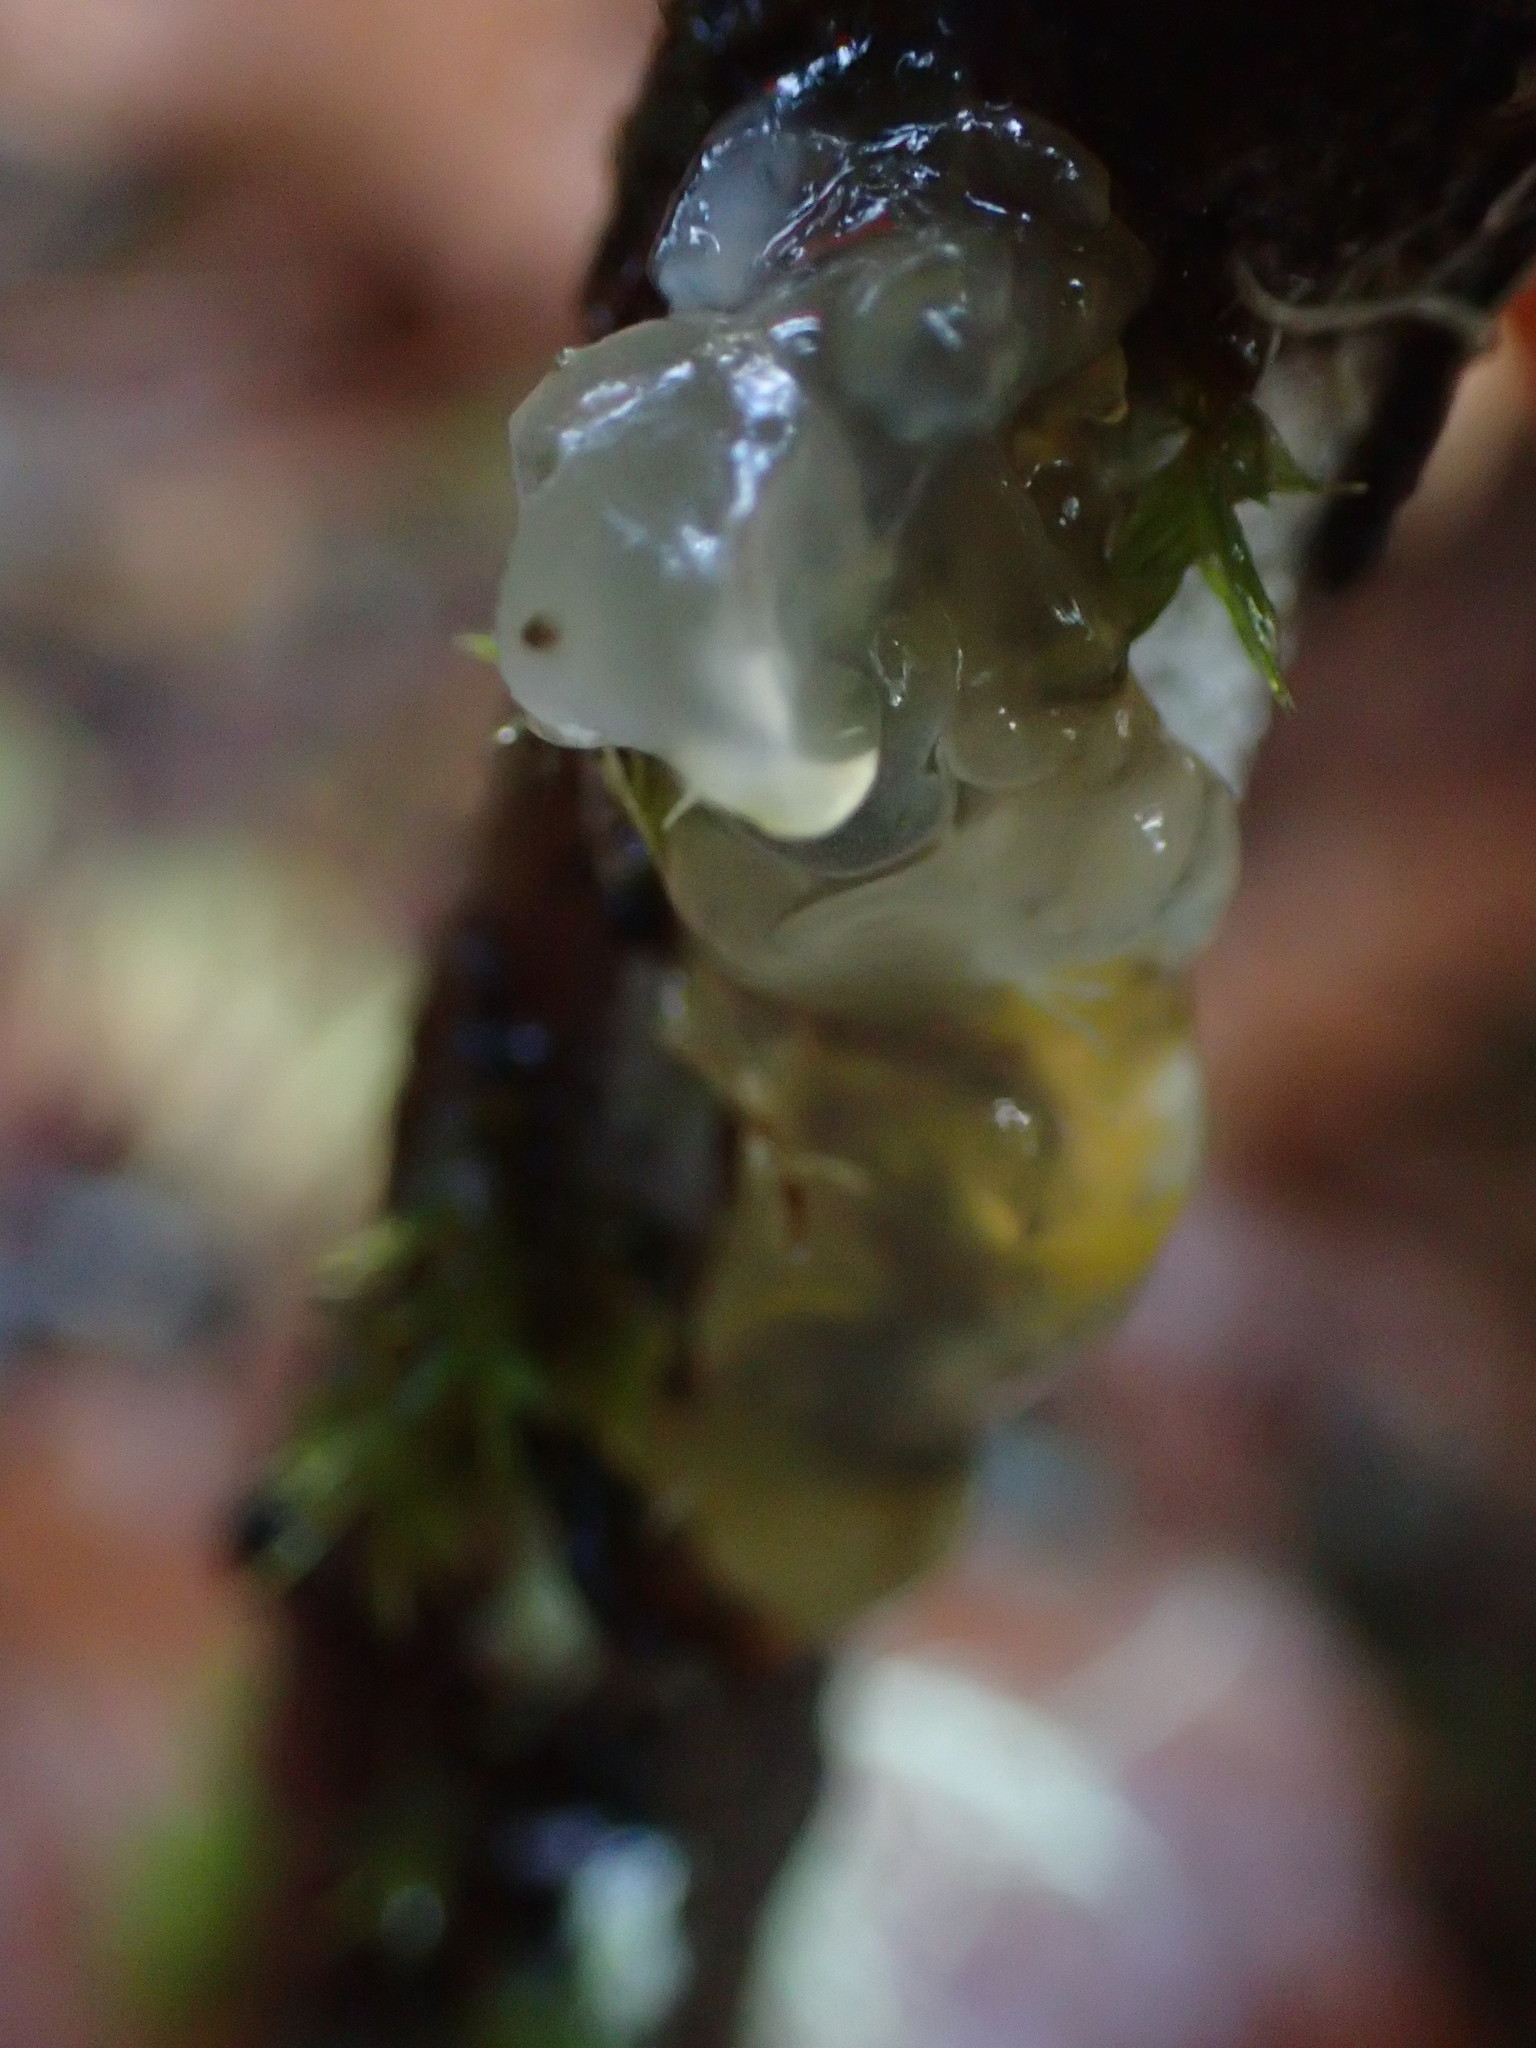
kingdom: Fungi
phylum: Basidiomycota
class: Agaricomycetes
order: Auriculariales
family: Hyaloriaceae
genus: Myxarium
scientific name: Myxarium nucleatum
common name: Crystal brain fungus
